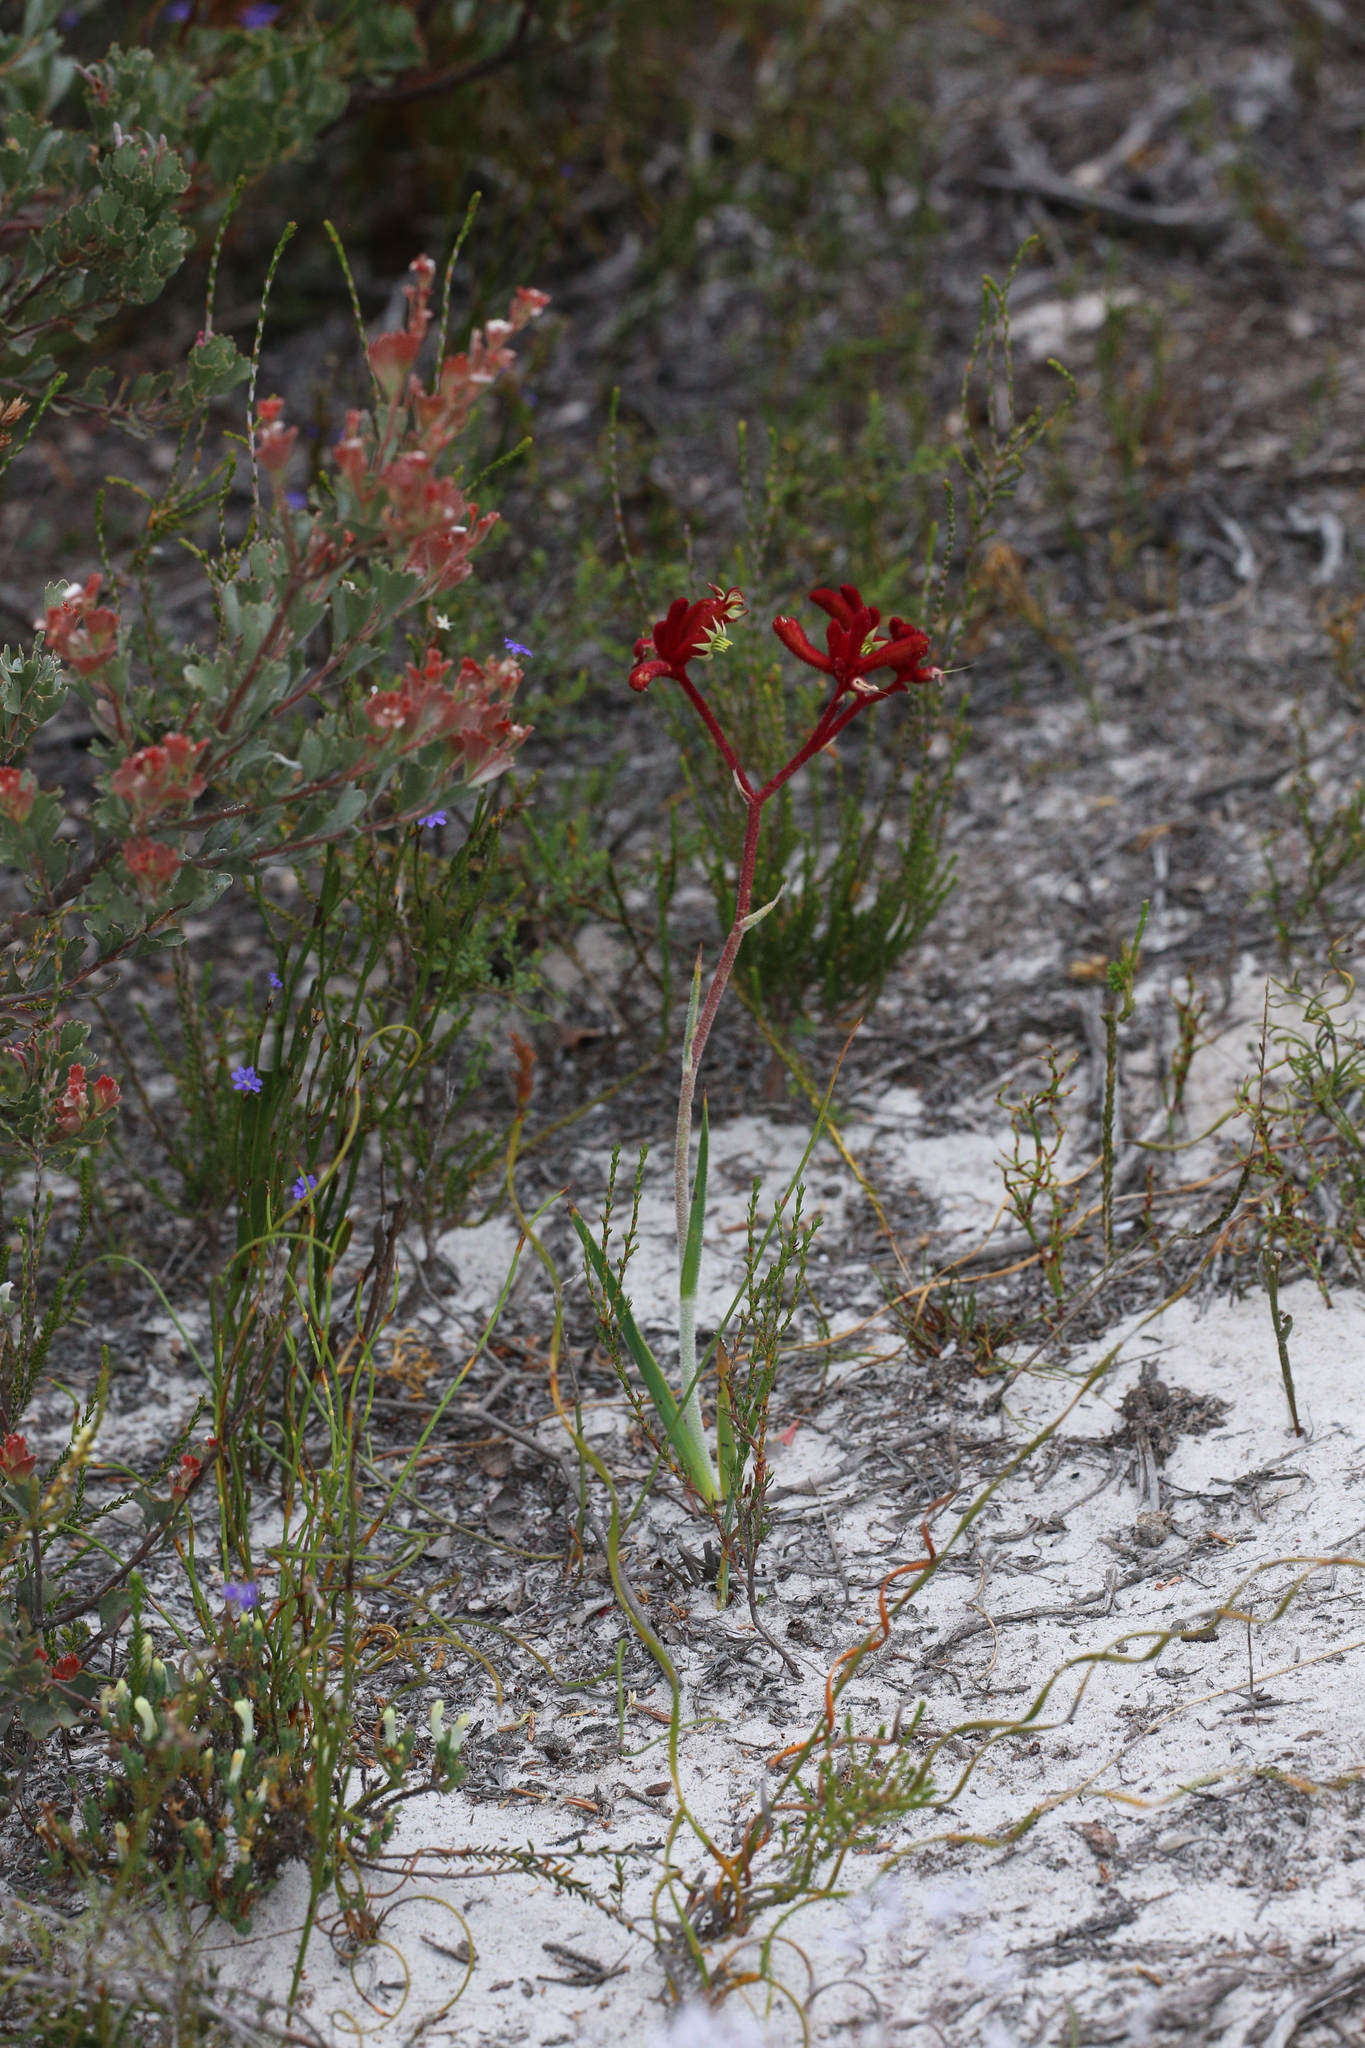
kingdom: Plantae
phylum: Tracheophyta
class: Liliopsida
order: Commelinales
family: Haemodoraceae
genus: Anigozanthos
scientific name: Anigozanthos rufus
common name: Red kangaroo-paw
